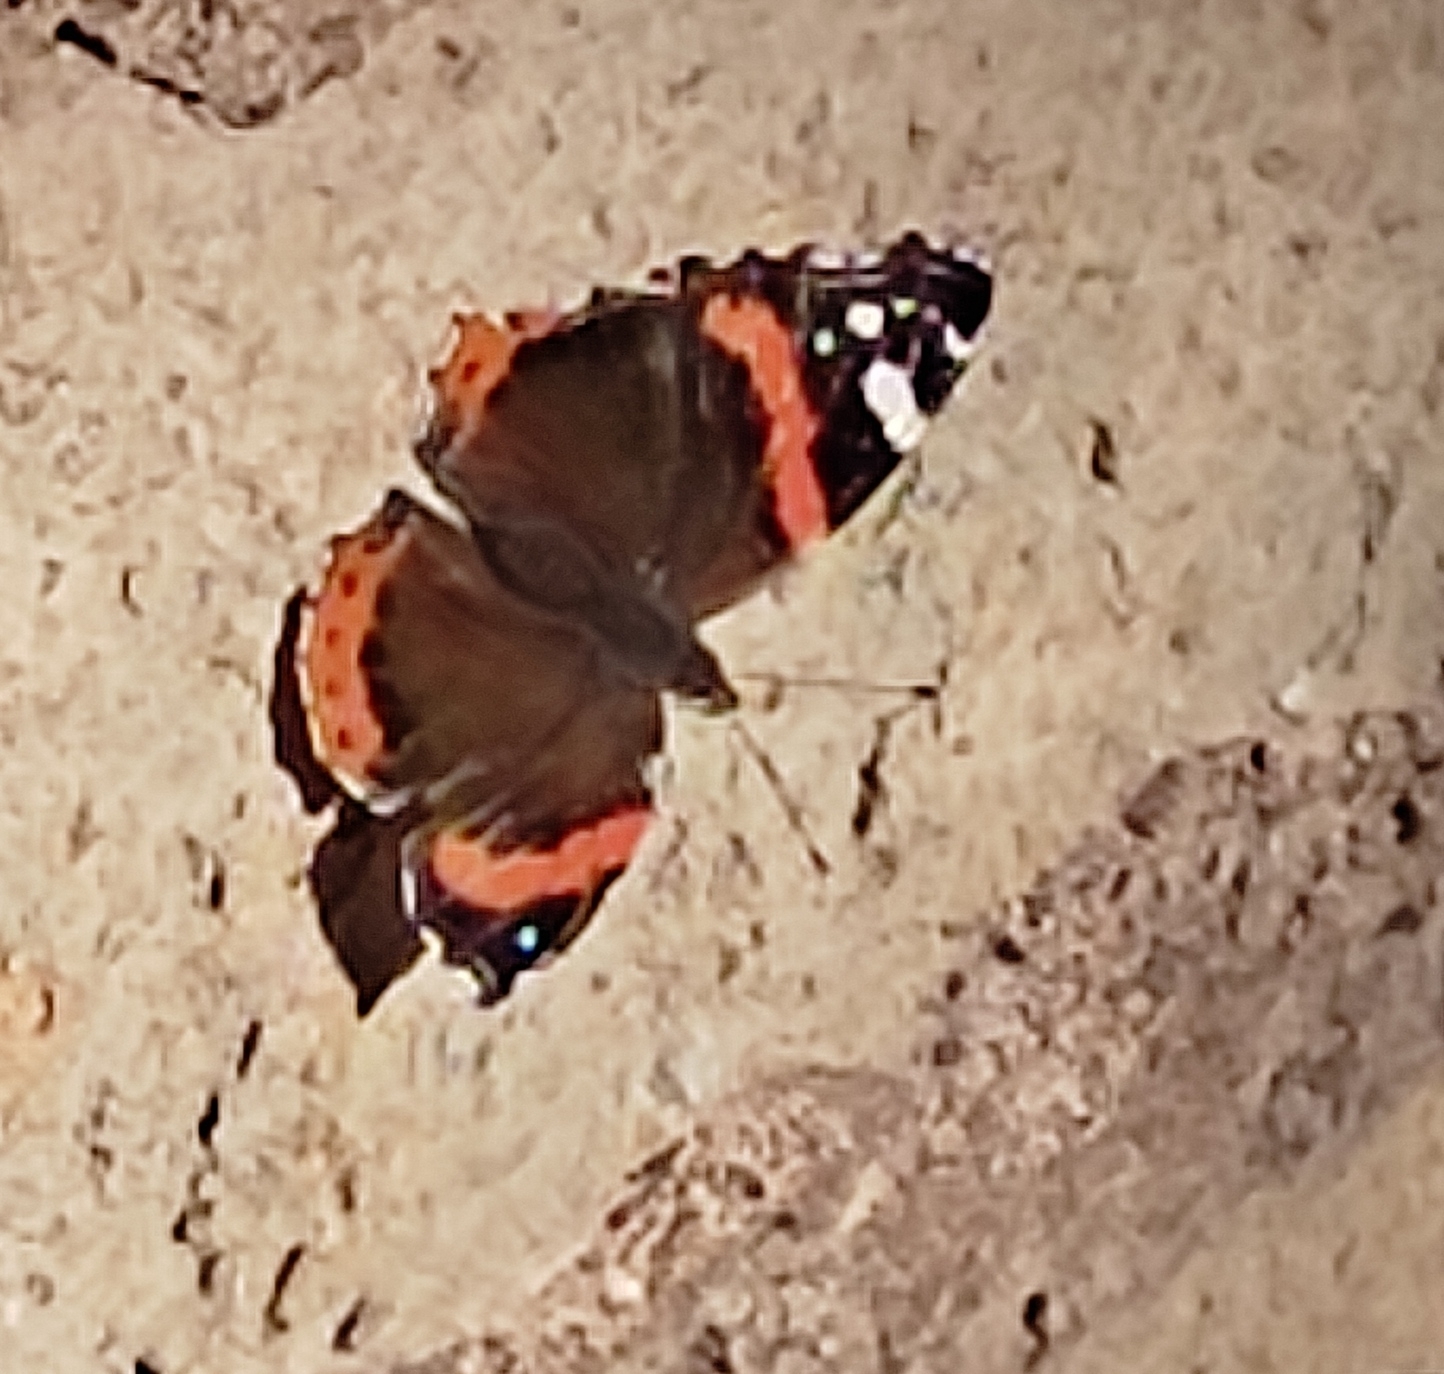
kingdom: Animalia
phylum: Arthropoda
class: Insecta
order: Lepidoptera
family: Nymphalidae
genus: Vanessa
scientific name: Vanessa atalanta
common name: Red admiral
